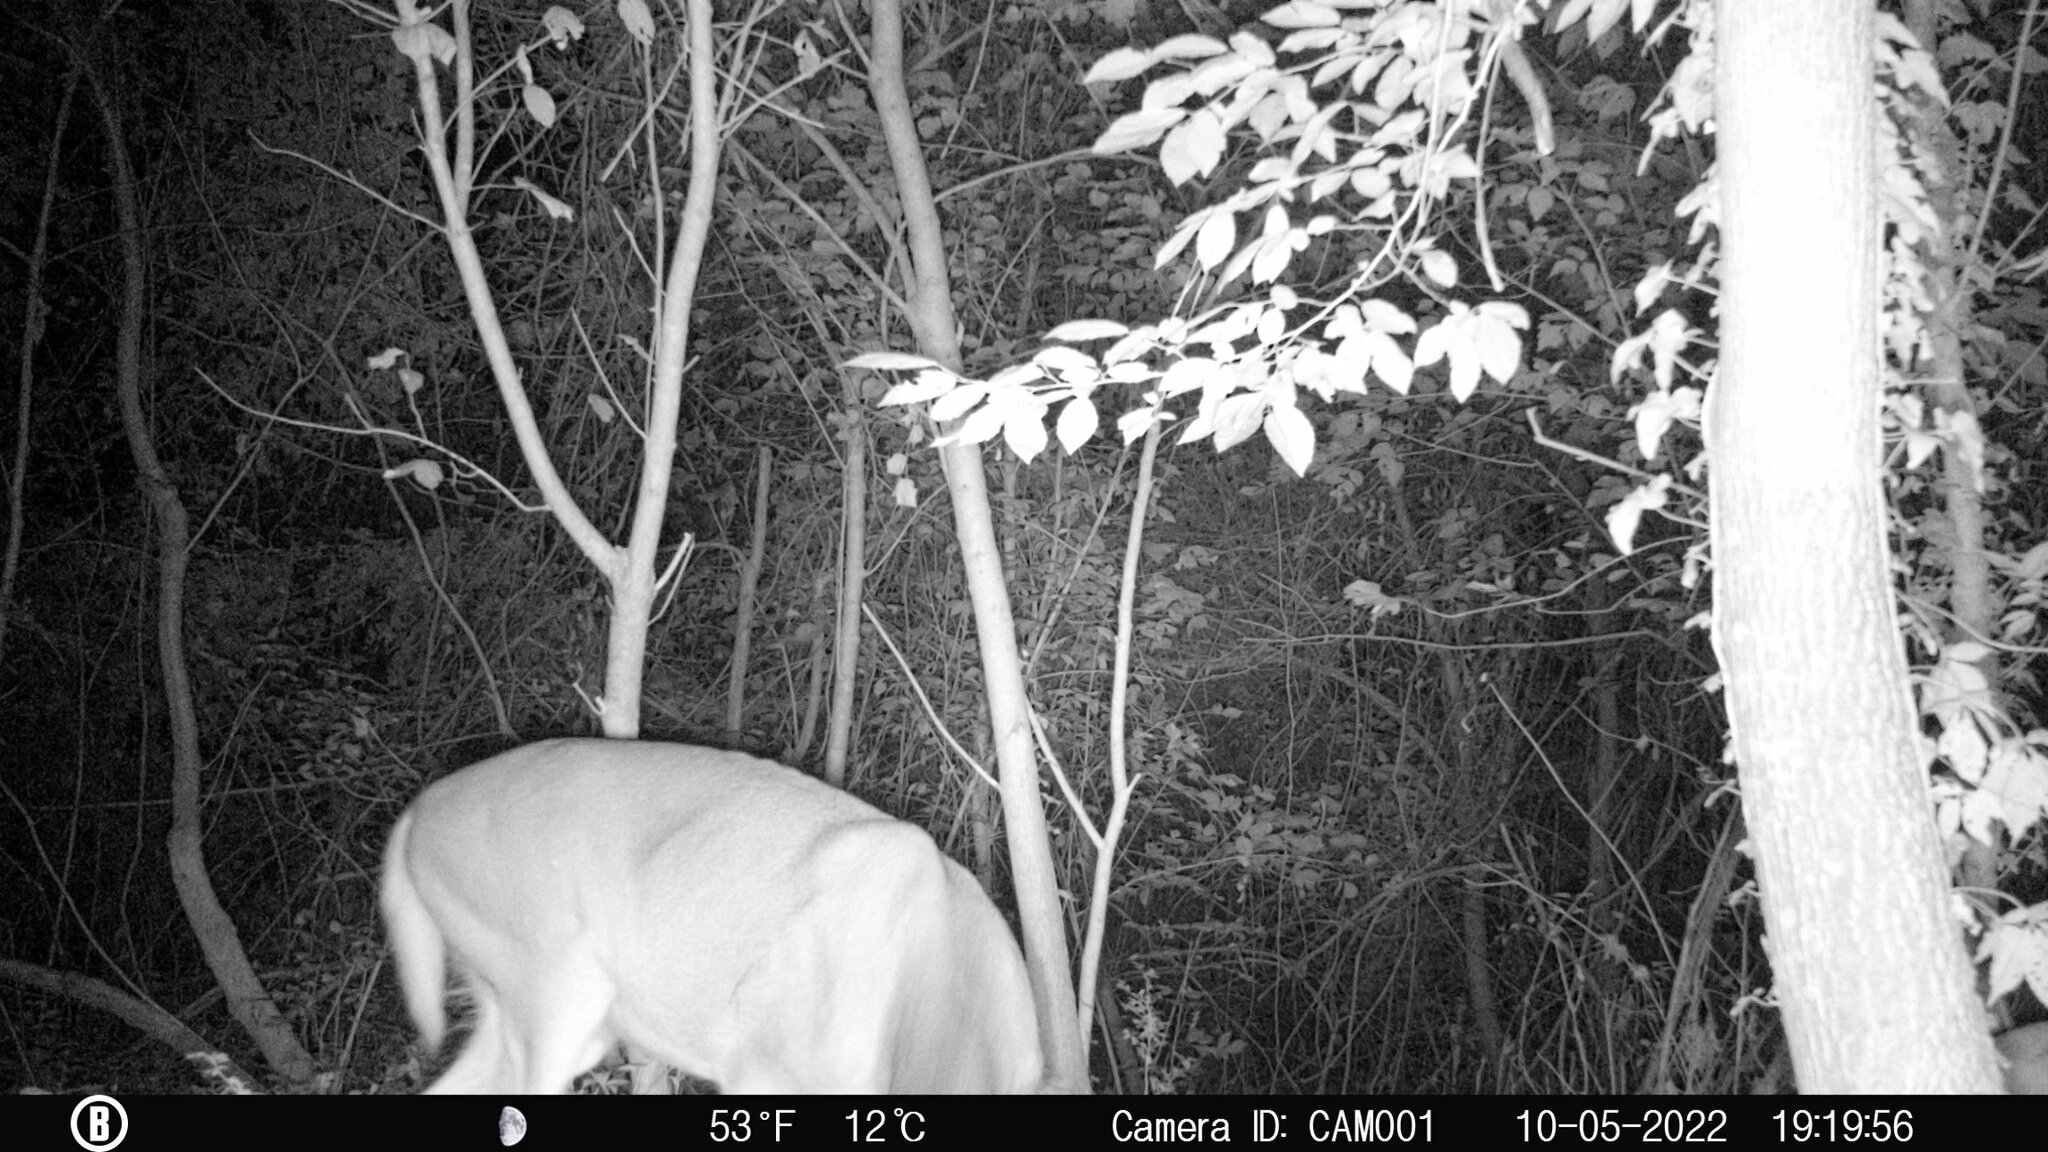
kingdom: Animalia
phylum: Chordata
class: Mammalia
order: Artiodactyla
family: Cervidae
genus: Odocoileus
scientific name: Odocoileus virginianus
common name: White-tailed deer
